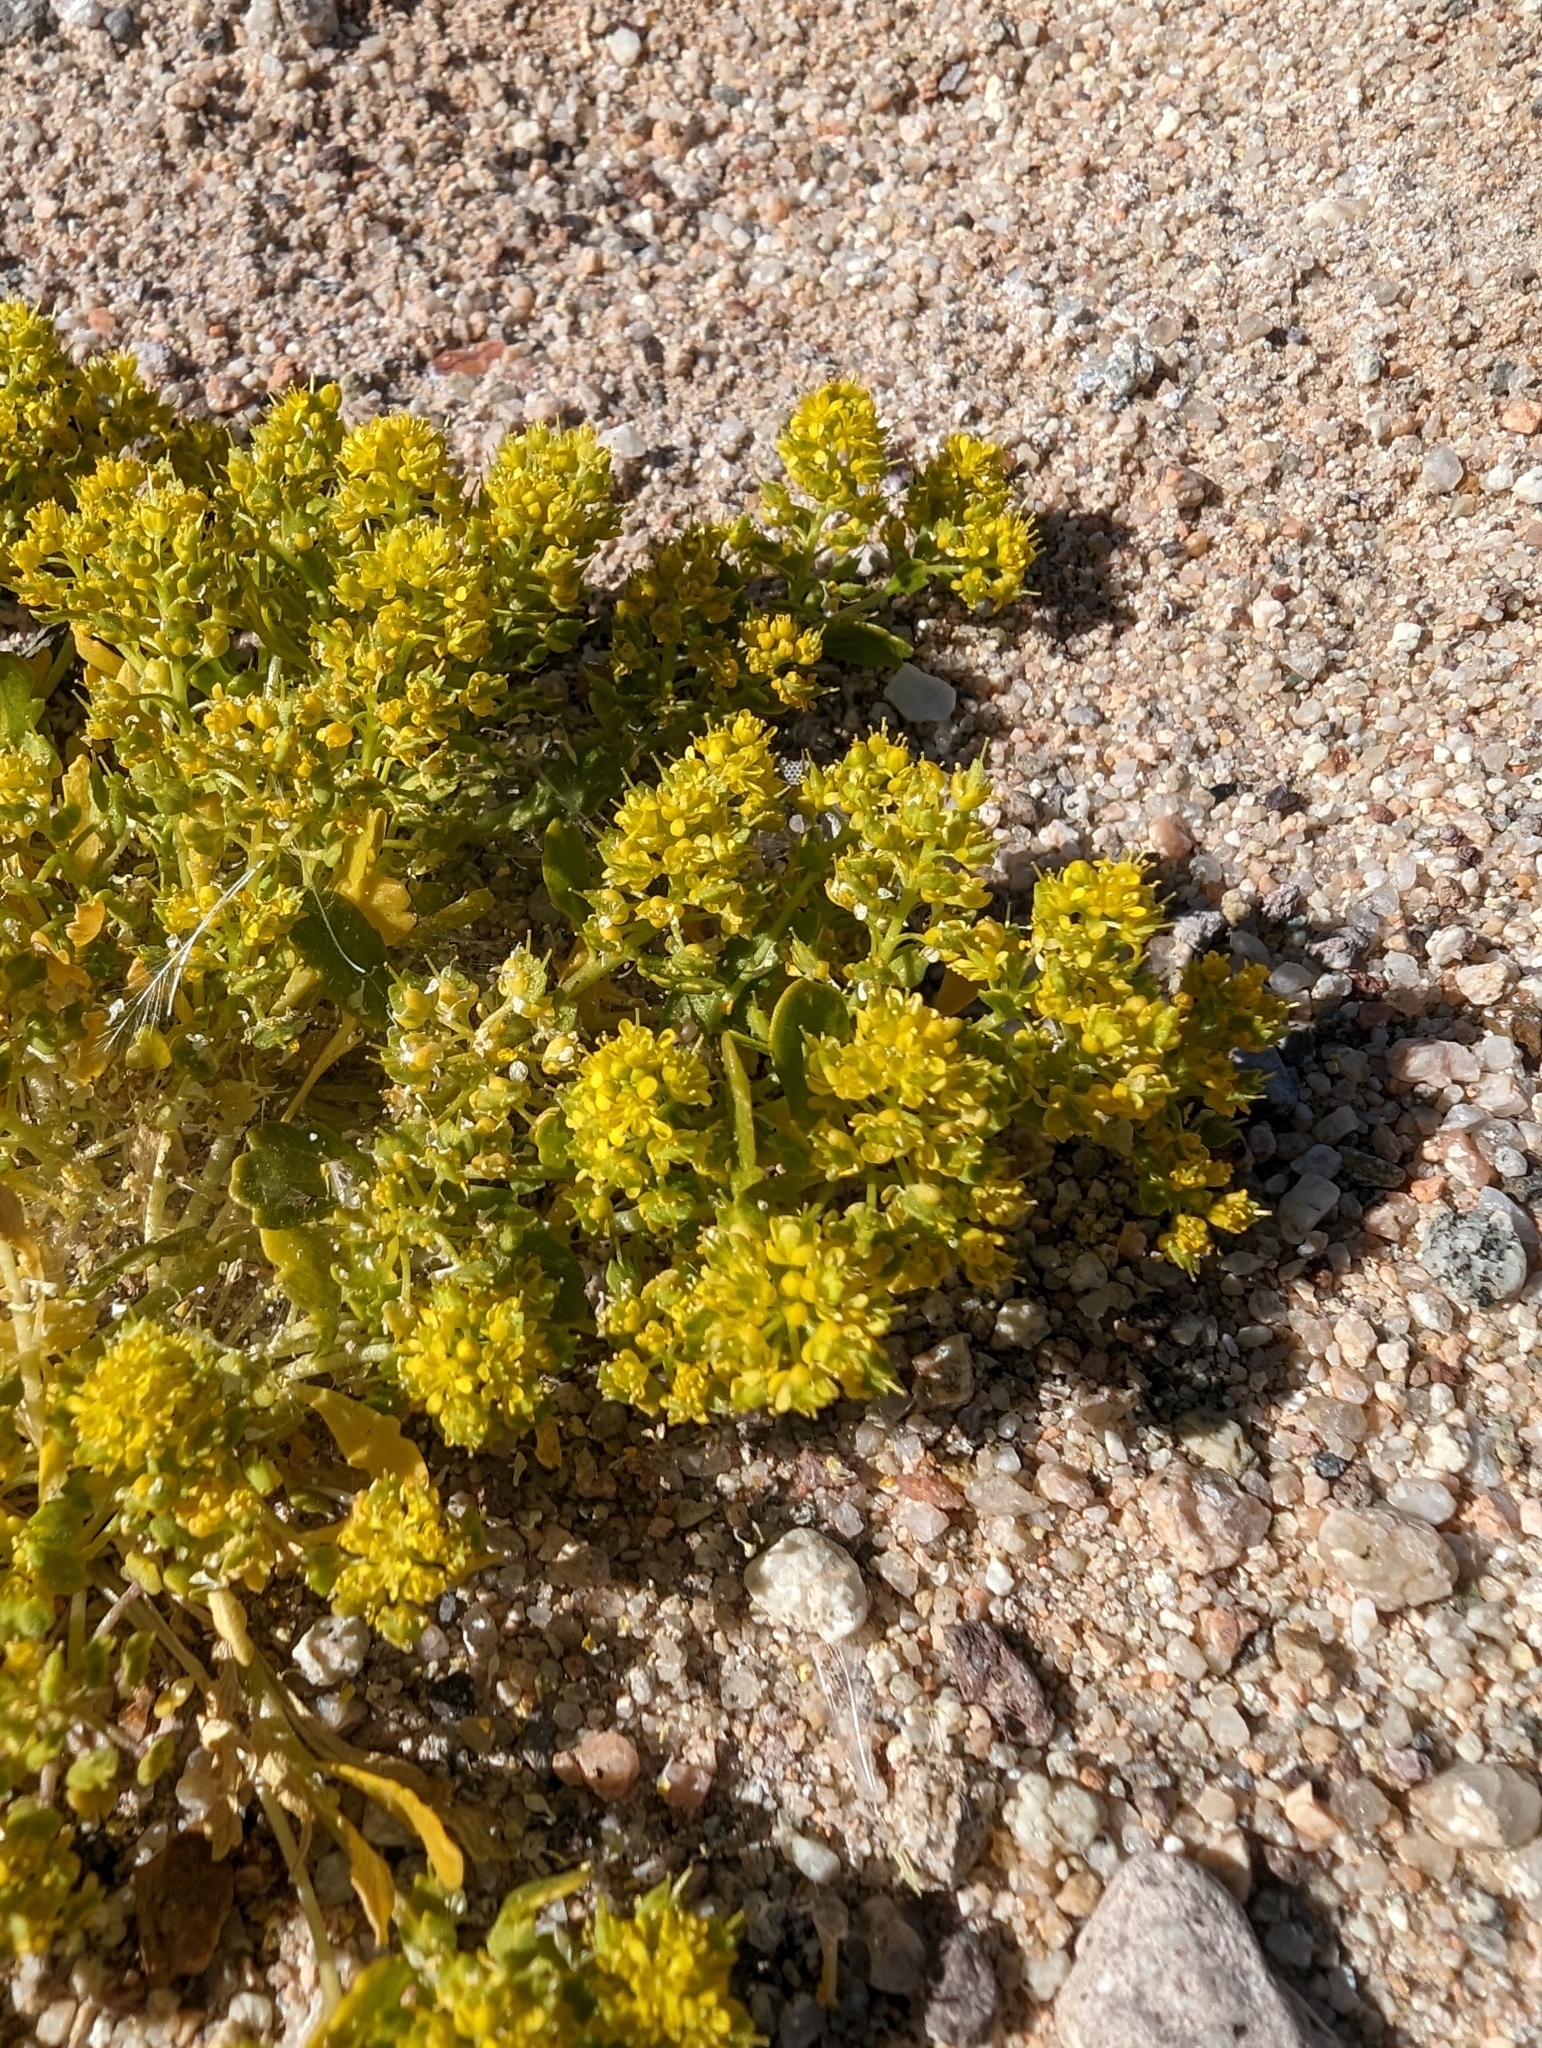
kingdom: Plantae
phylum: Tracheophyta
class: Magnoliopsida
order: Brassicales
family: Brassicaceae
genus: Lepidium
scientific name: Lepidium flavum
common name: Yellow pepperwort
